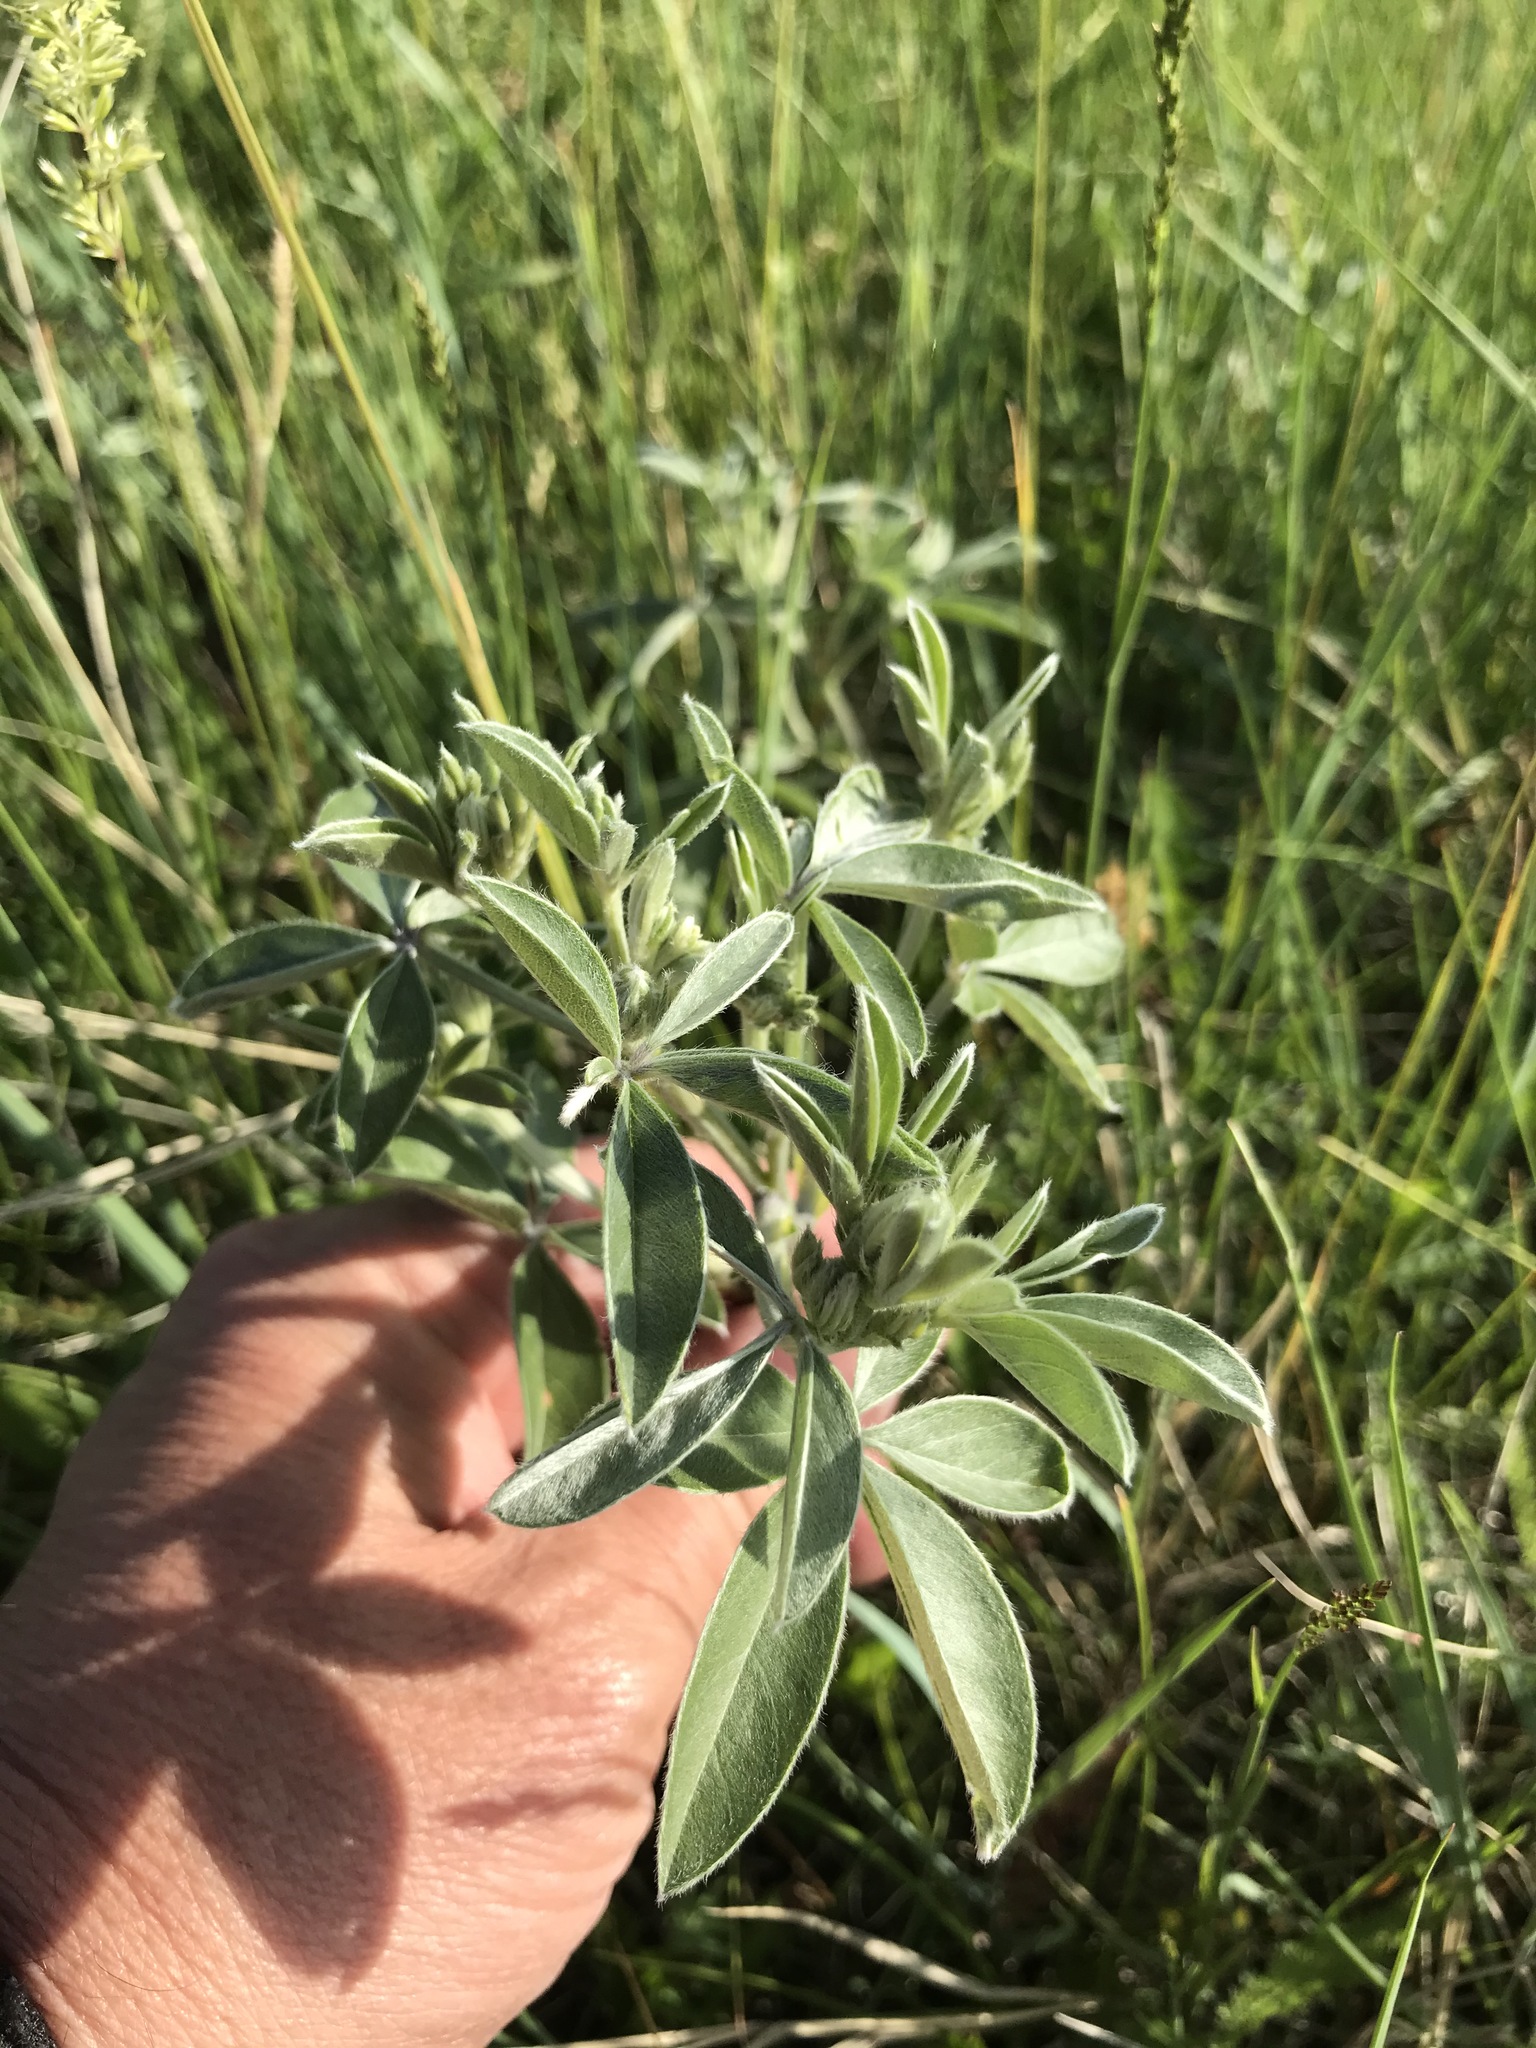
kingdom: Plantae
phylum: Tracheophyta
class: Magnoliopsida
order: Fabales
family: Fabaceae
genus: Pediomelum
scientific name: Pediomelum argophyllum
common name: Silver-leaved indian breadroot
